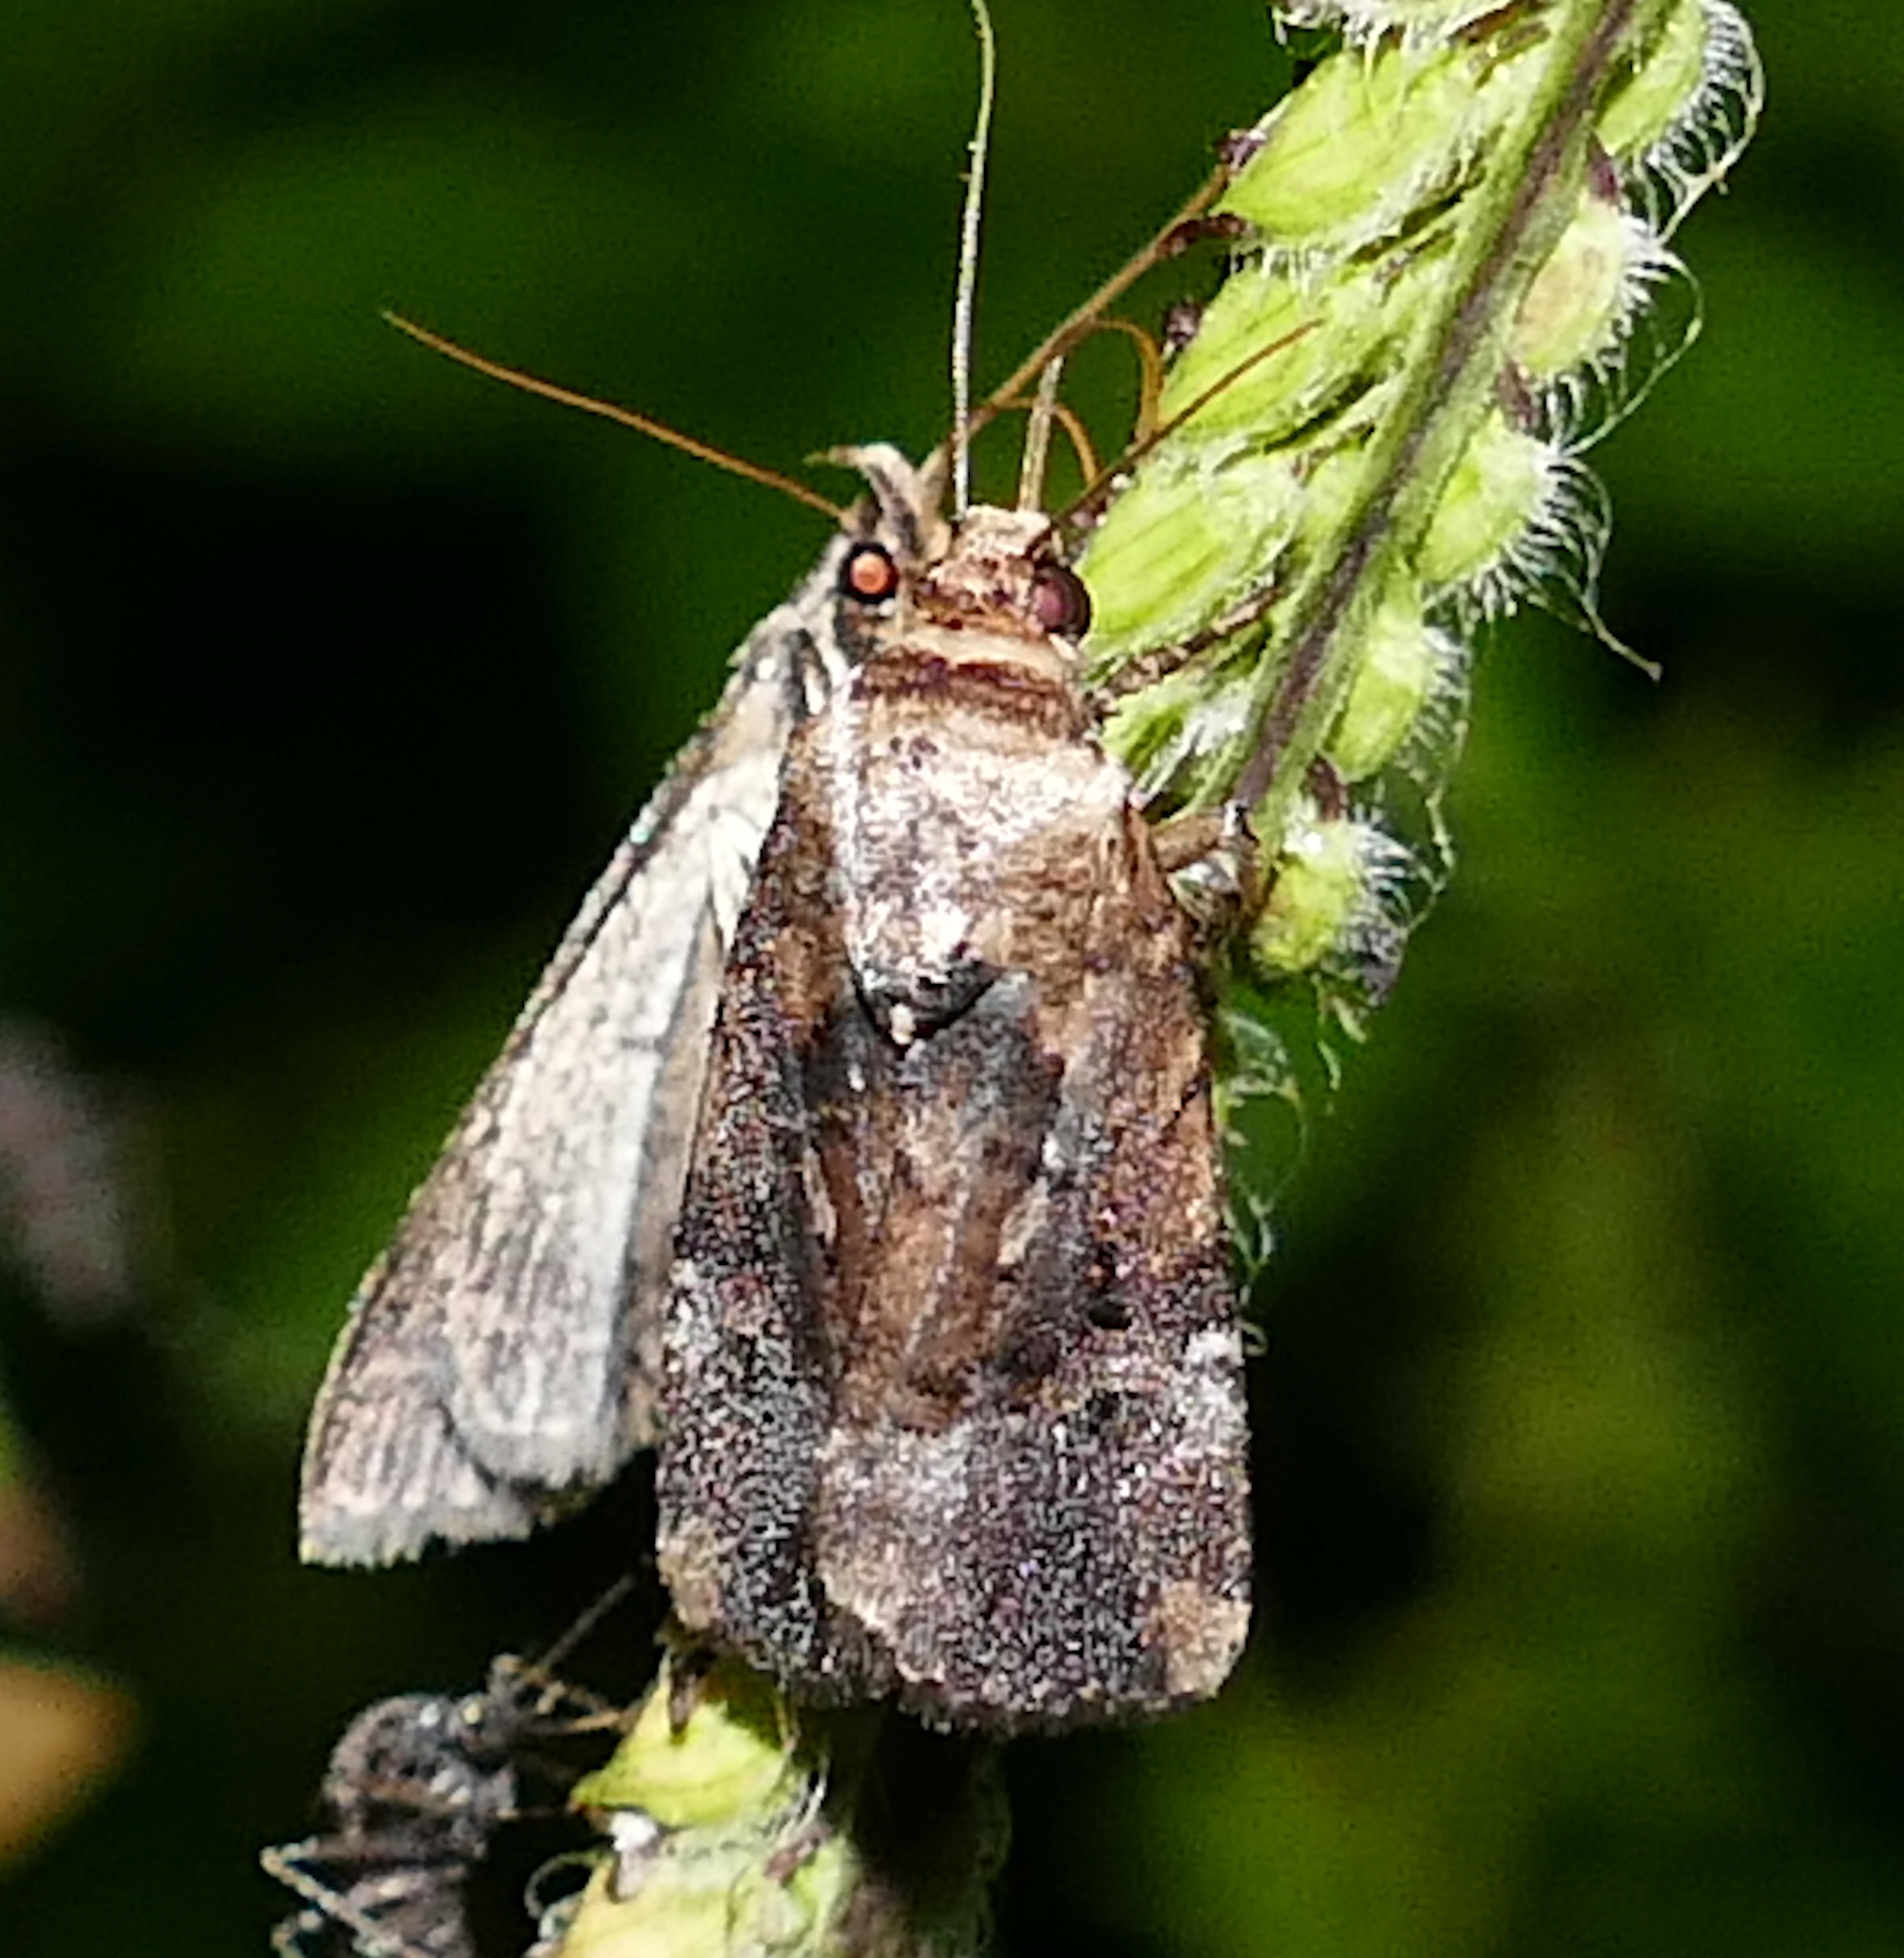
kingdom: Animalia
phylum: Arthropoda
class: Insecta
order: Lepidoptera
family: Noctuidae
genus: Elaphria
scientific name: Elaphria chalcedonia
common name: Chalcedony midget
